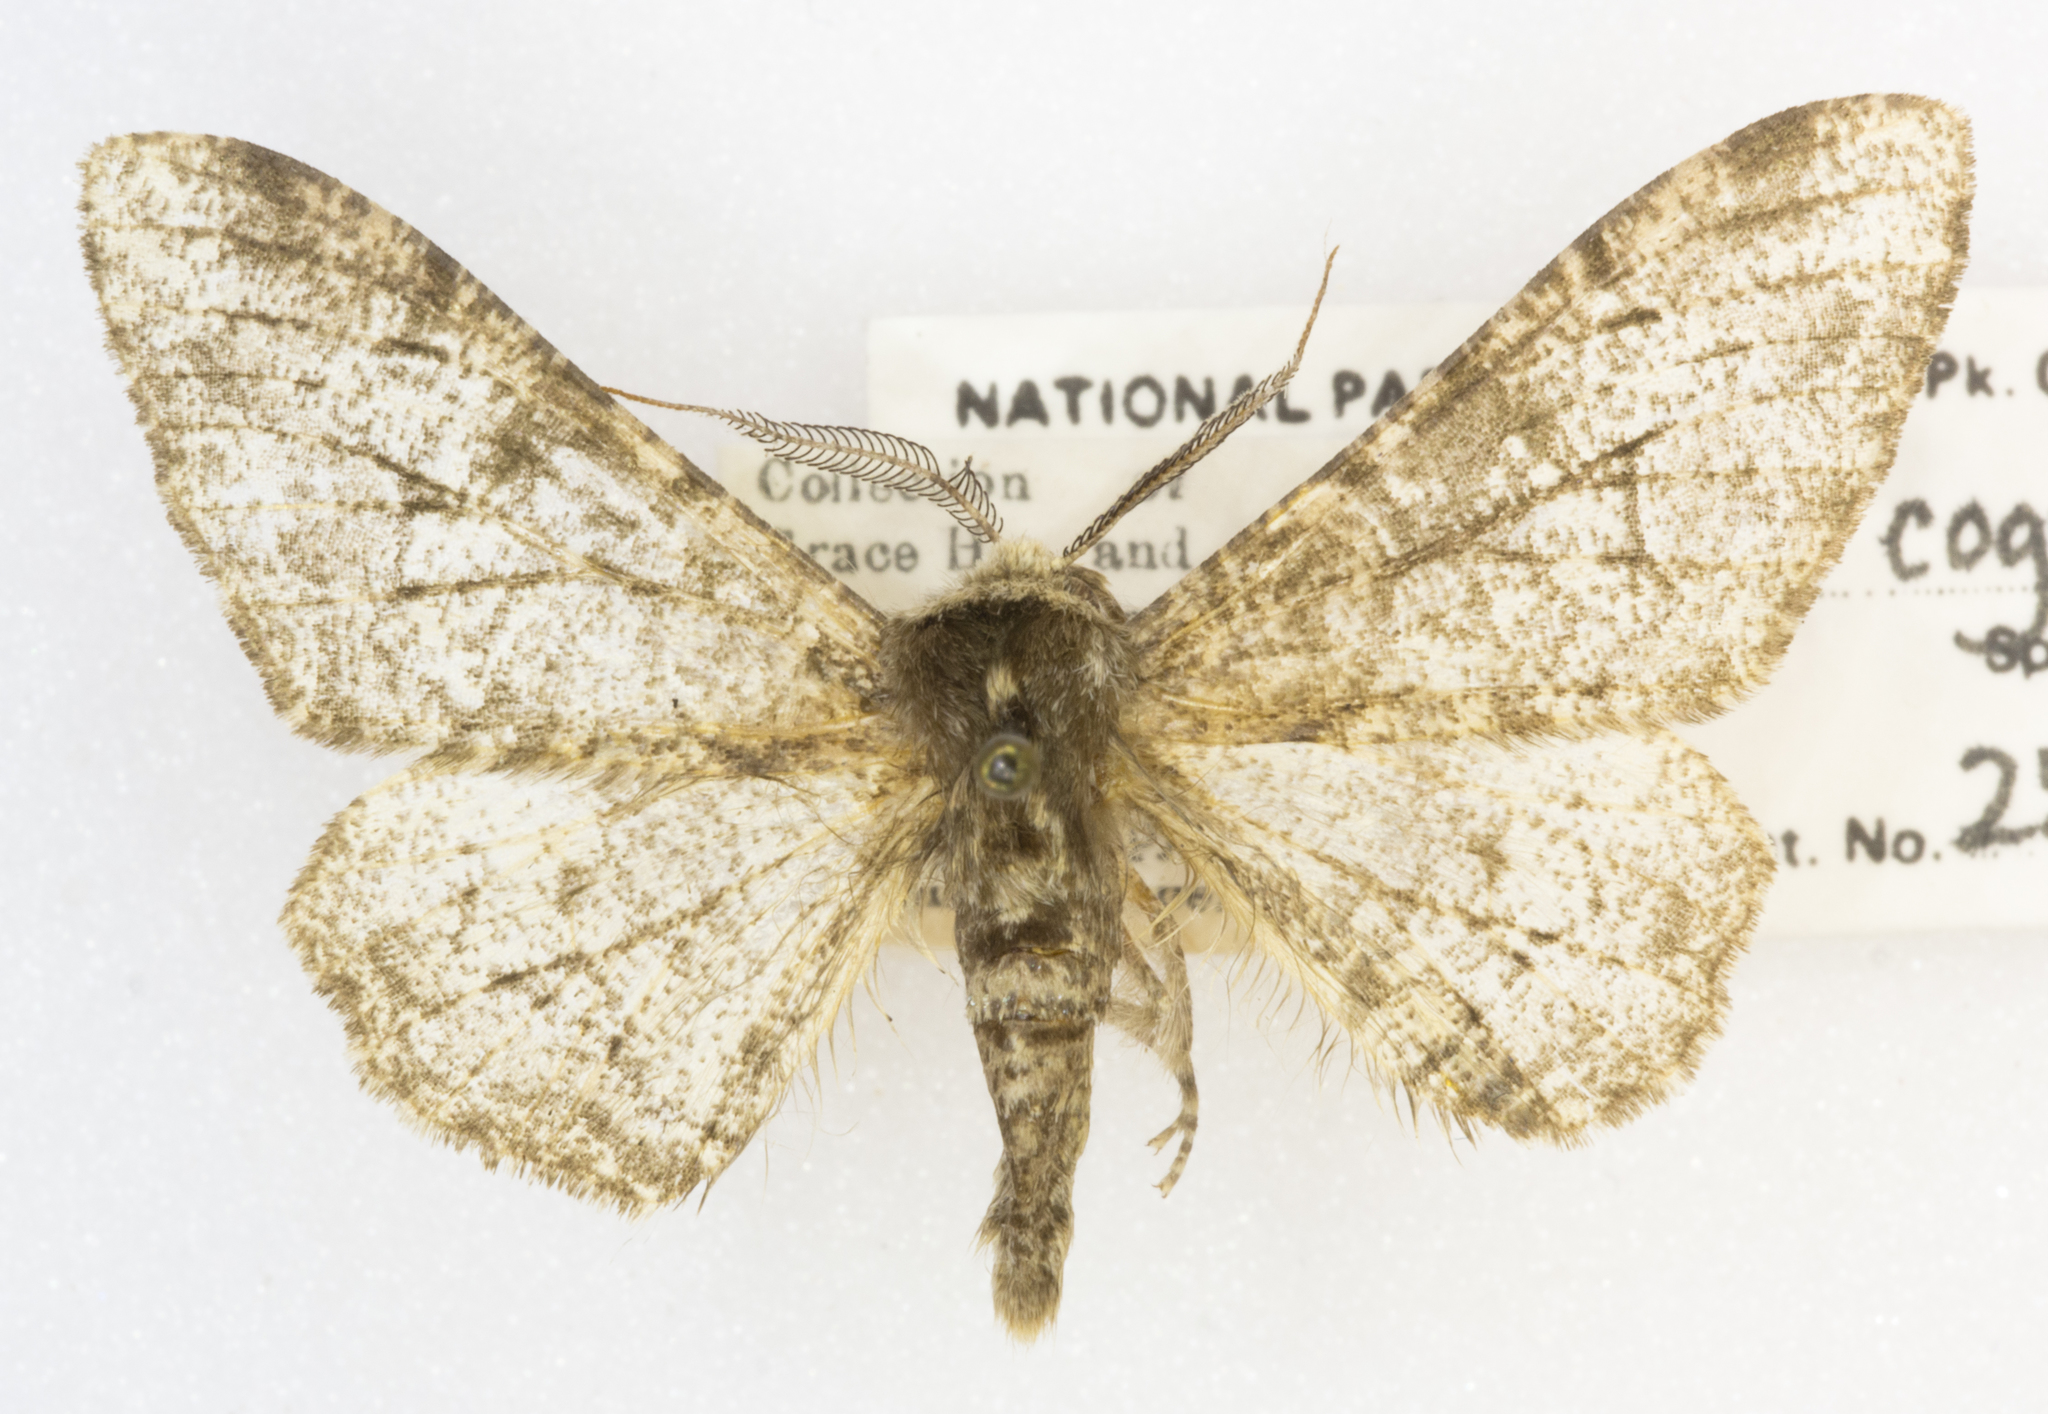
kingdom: Animalia
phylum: Arthropoda
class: Insecta
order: Lepidoptera
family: Geometridae
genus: Biston
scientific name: Biston betularia
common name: Peppered moth
